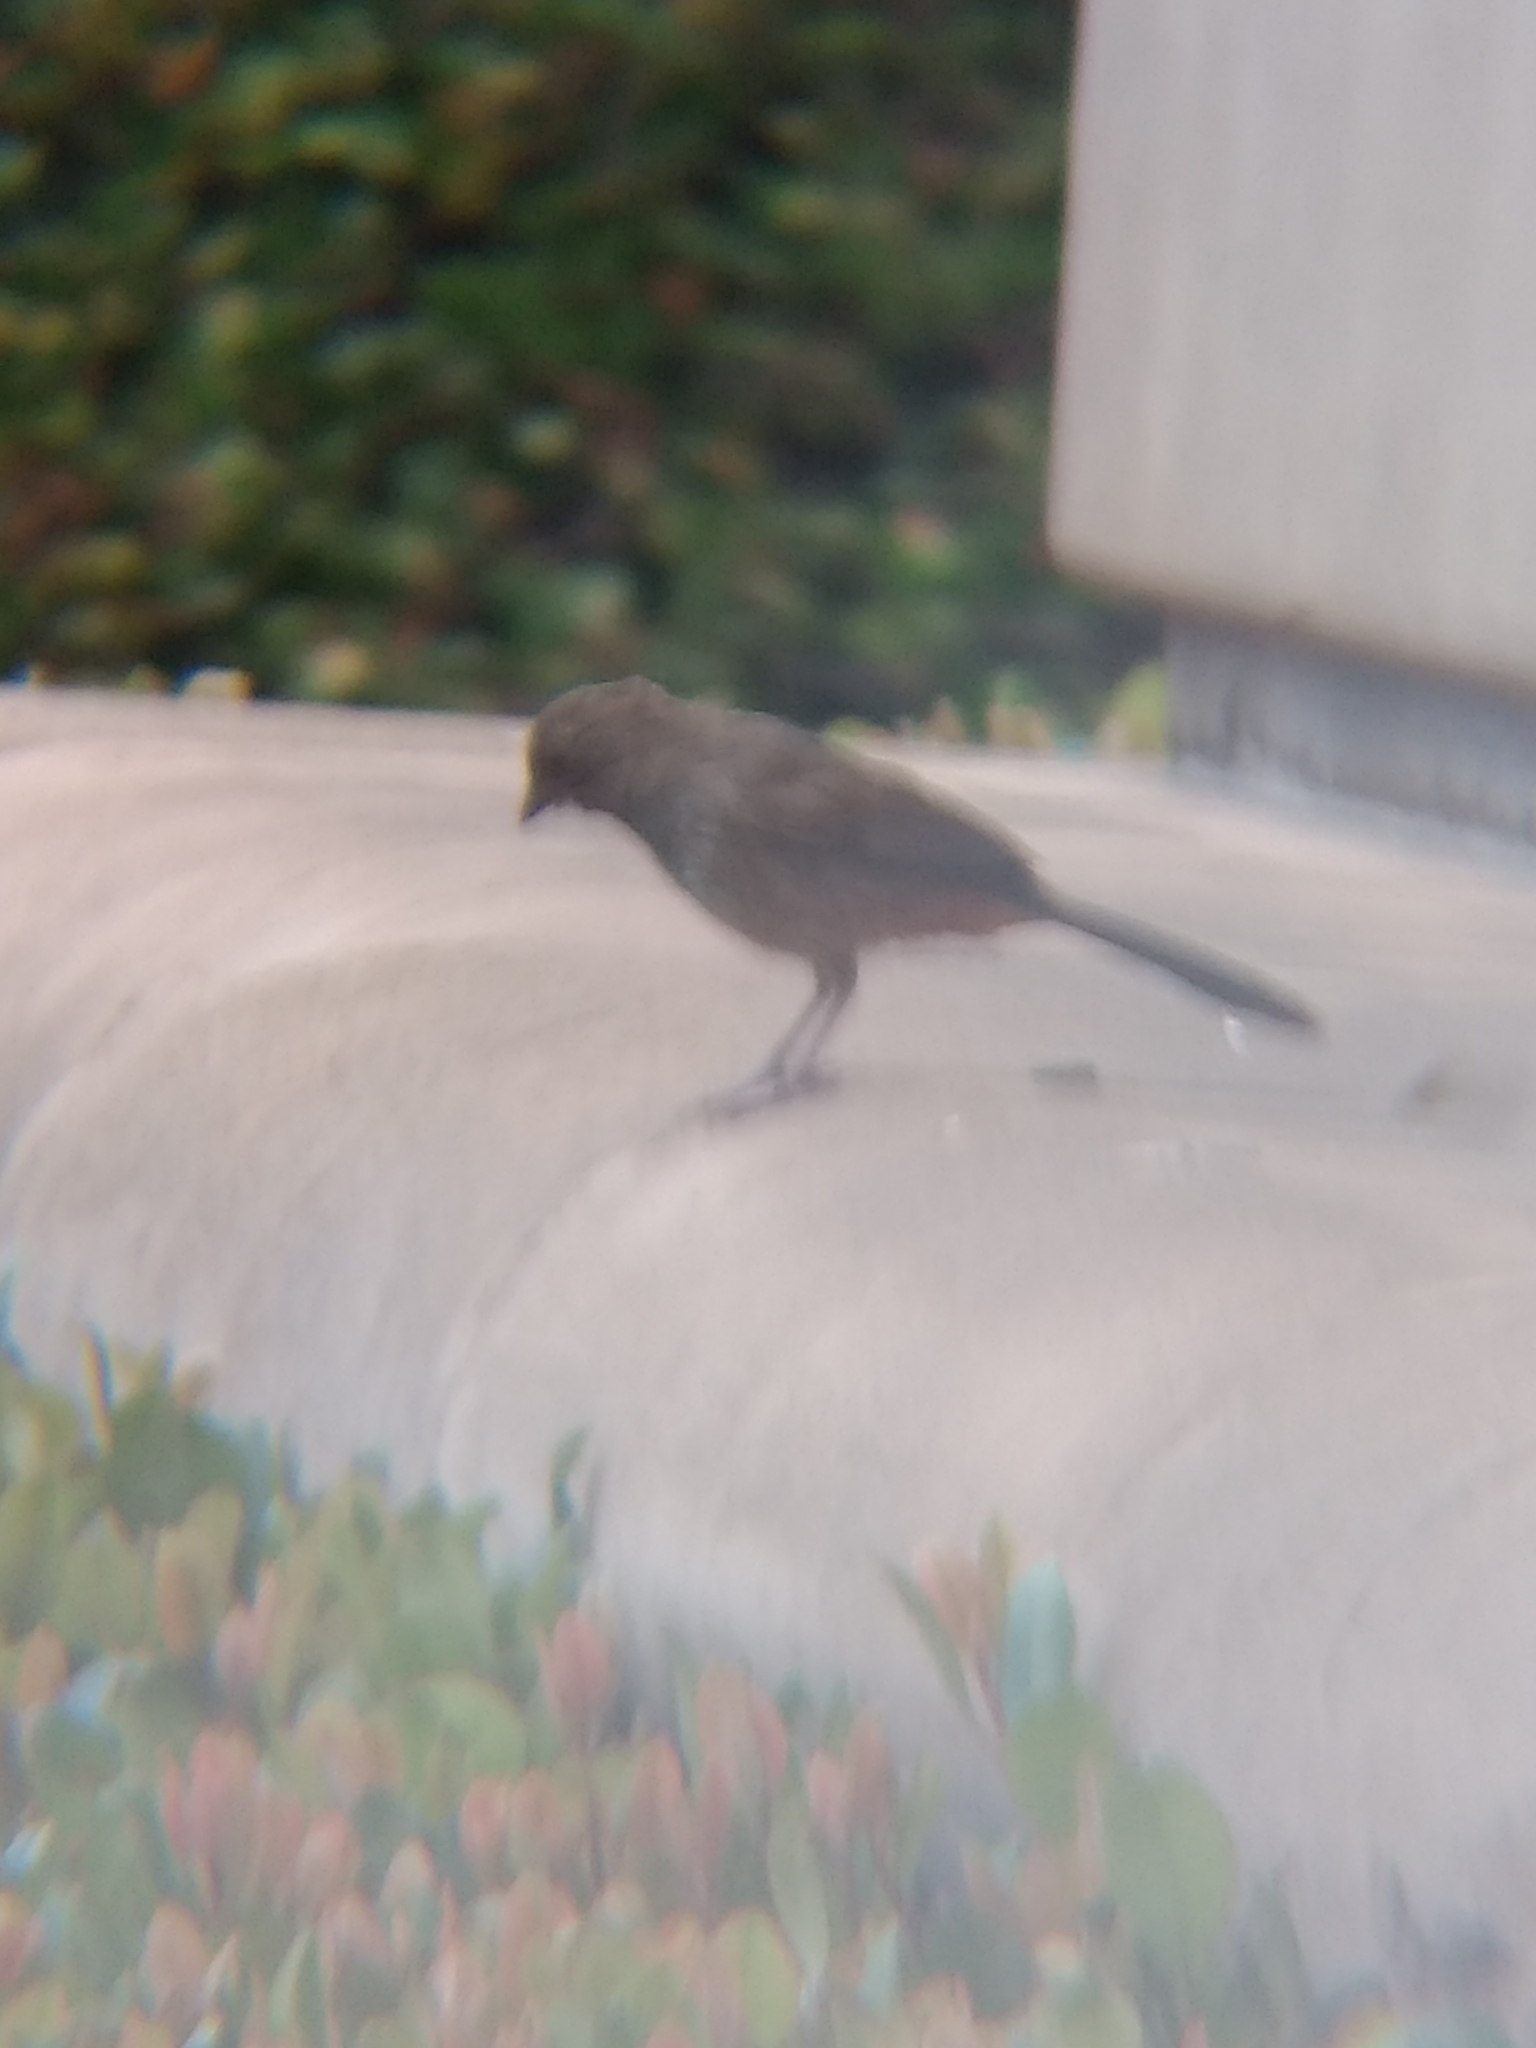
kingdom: Animalia
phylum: Chordata
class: Aves
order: Passeriformes
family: Passerellidae
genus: Melozone
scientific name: Melozone crissalis
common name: California towhee
